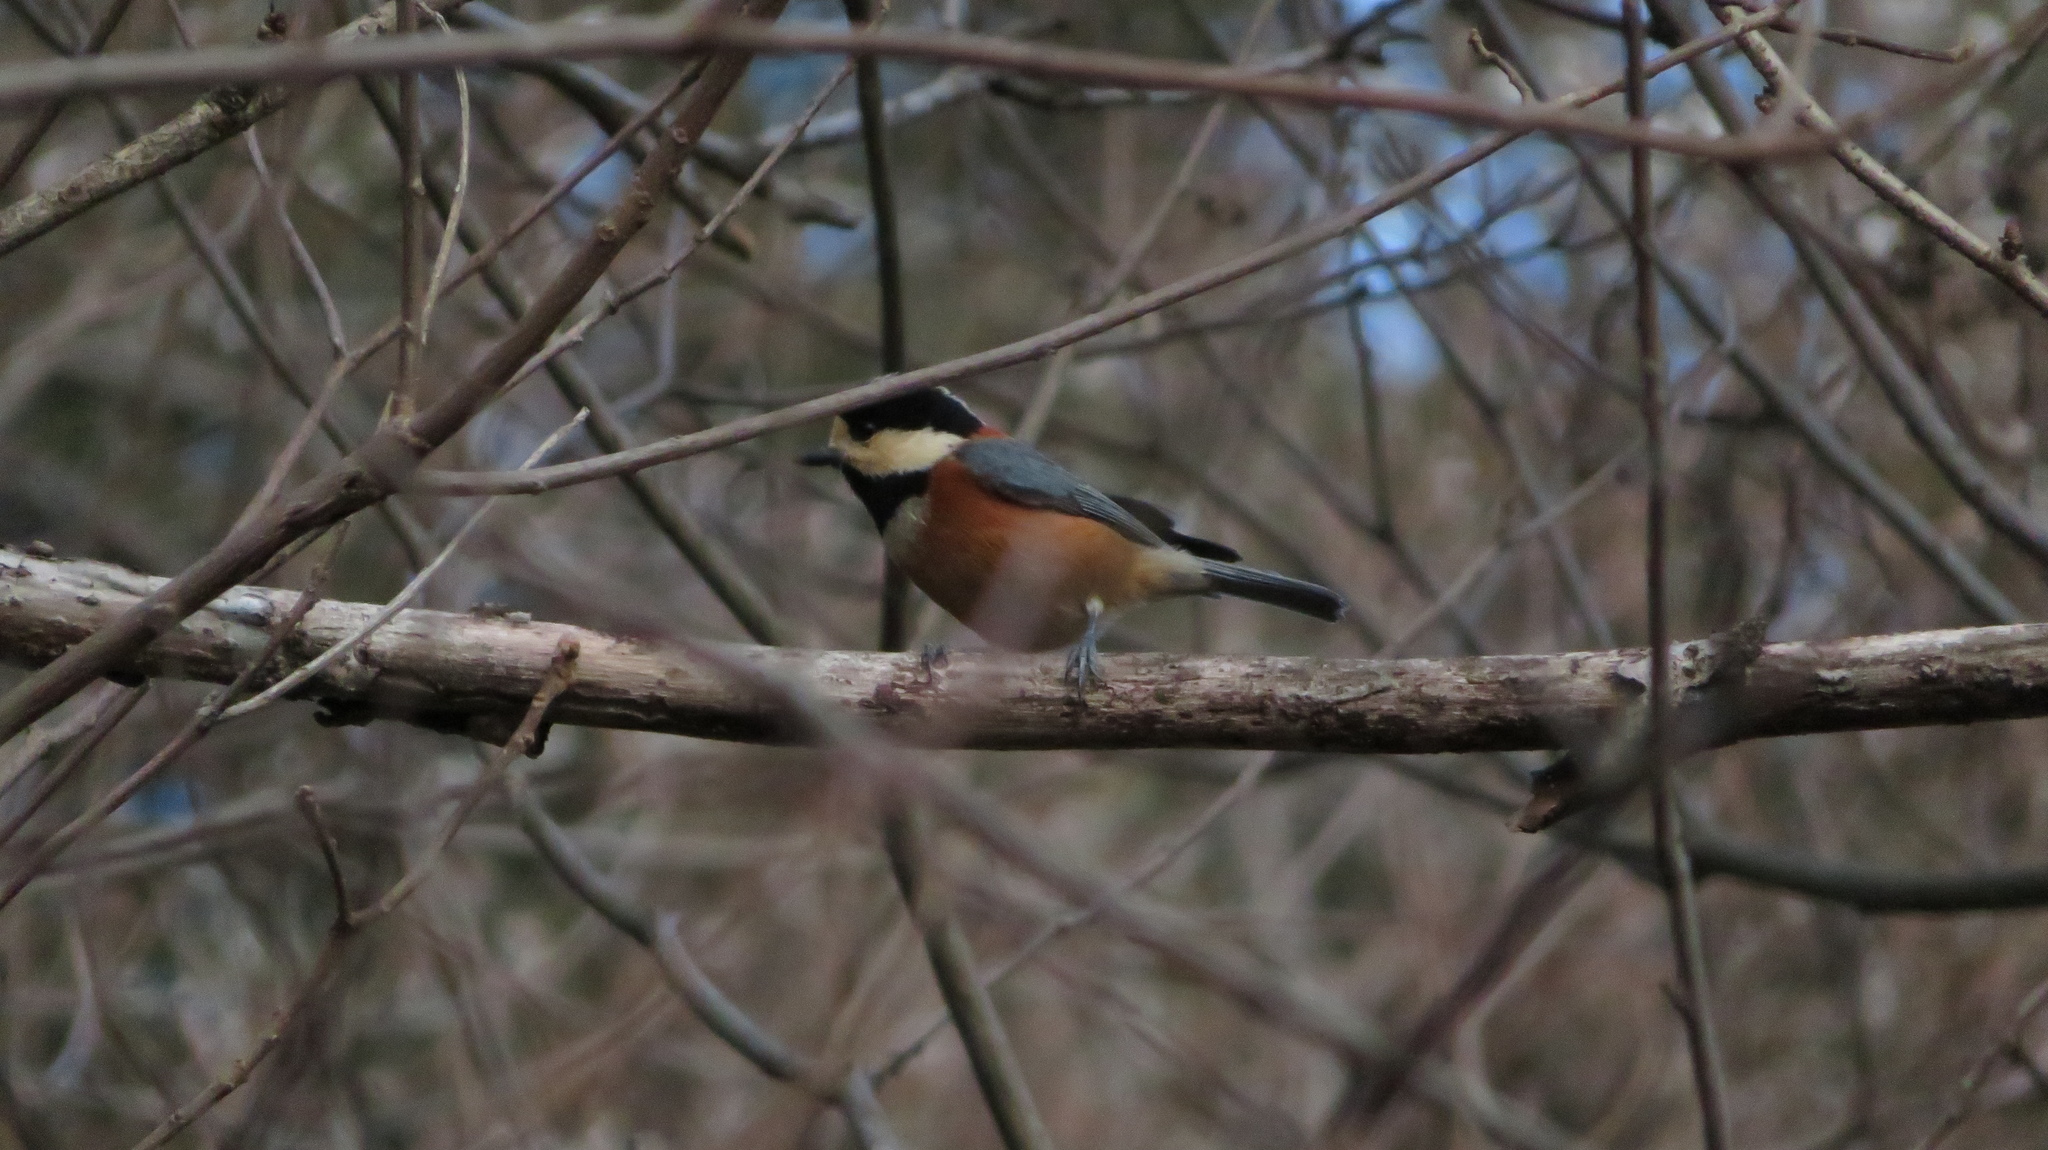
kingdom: Animalia
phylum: Chordata
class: Aves
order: Passeriformes
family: Paridae
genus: Poecile
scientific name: Poecile varius
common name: Varied tit
